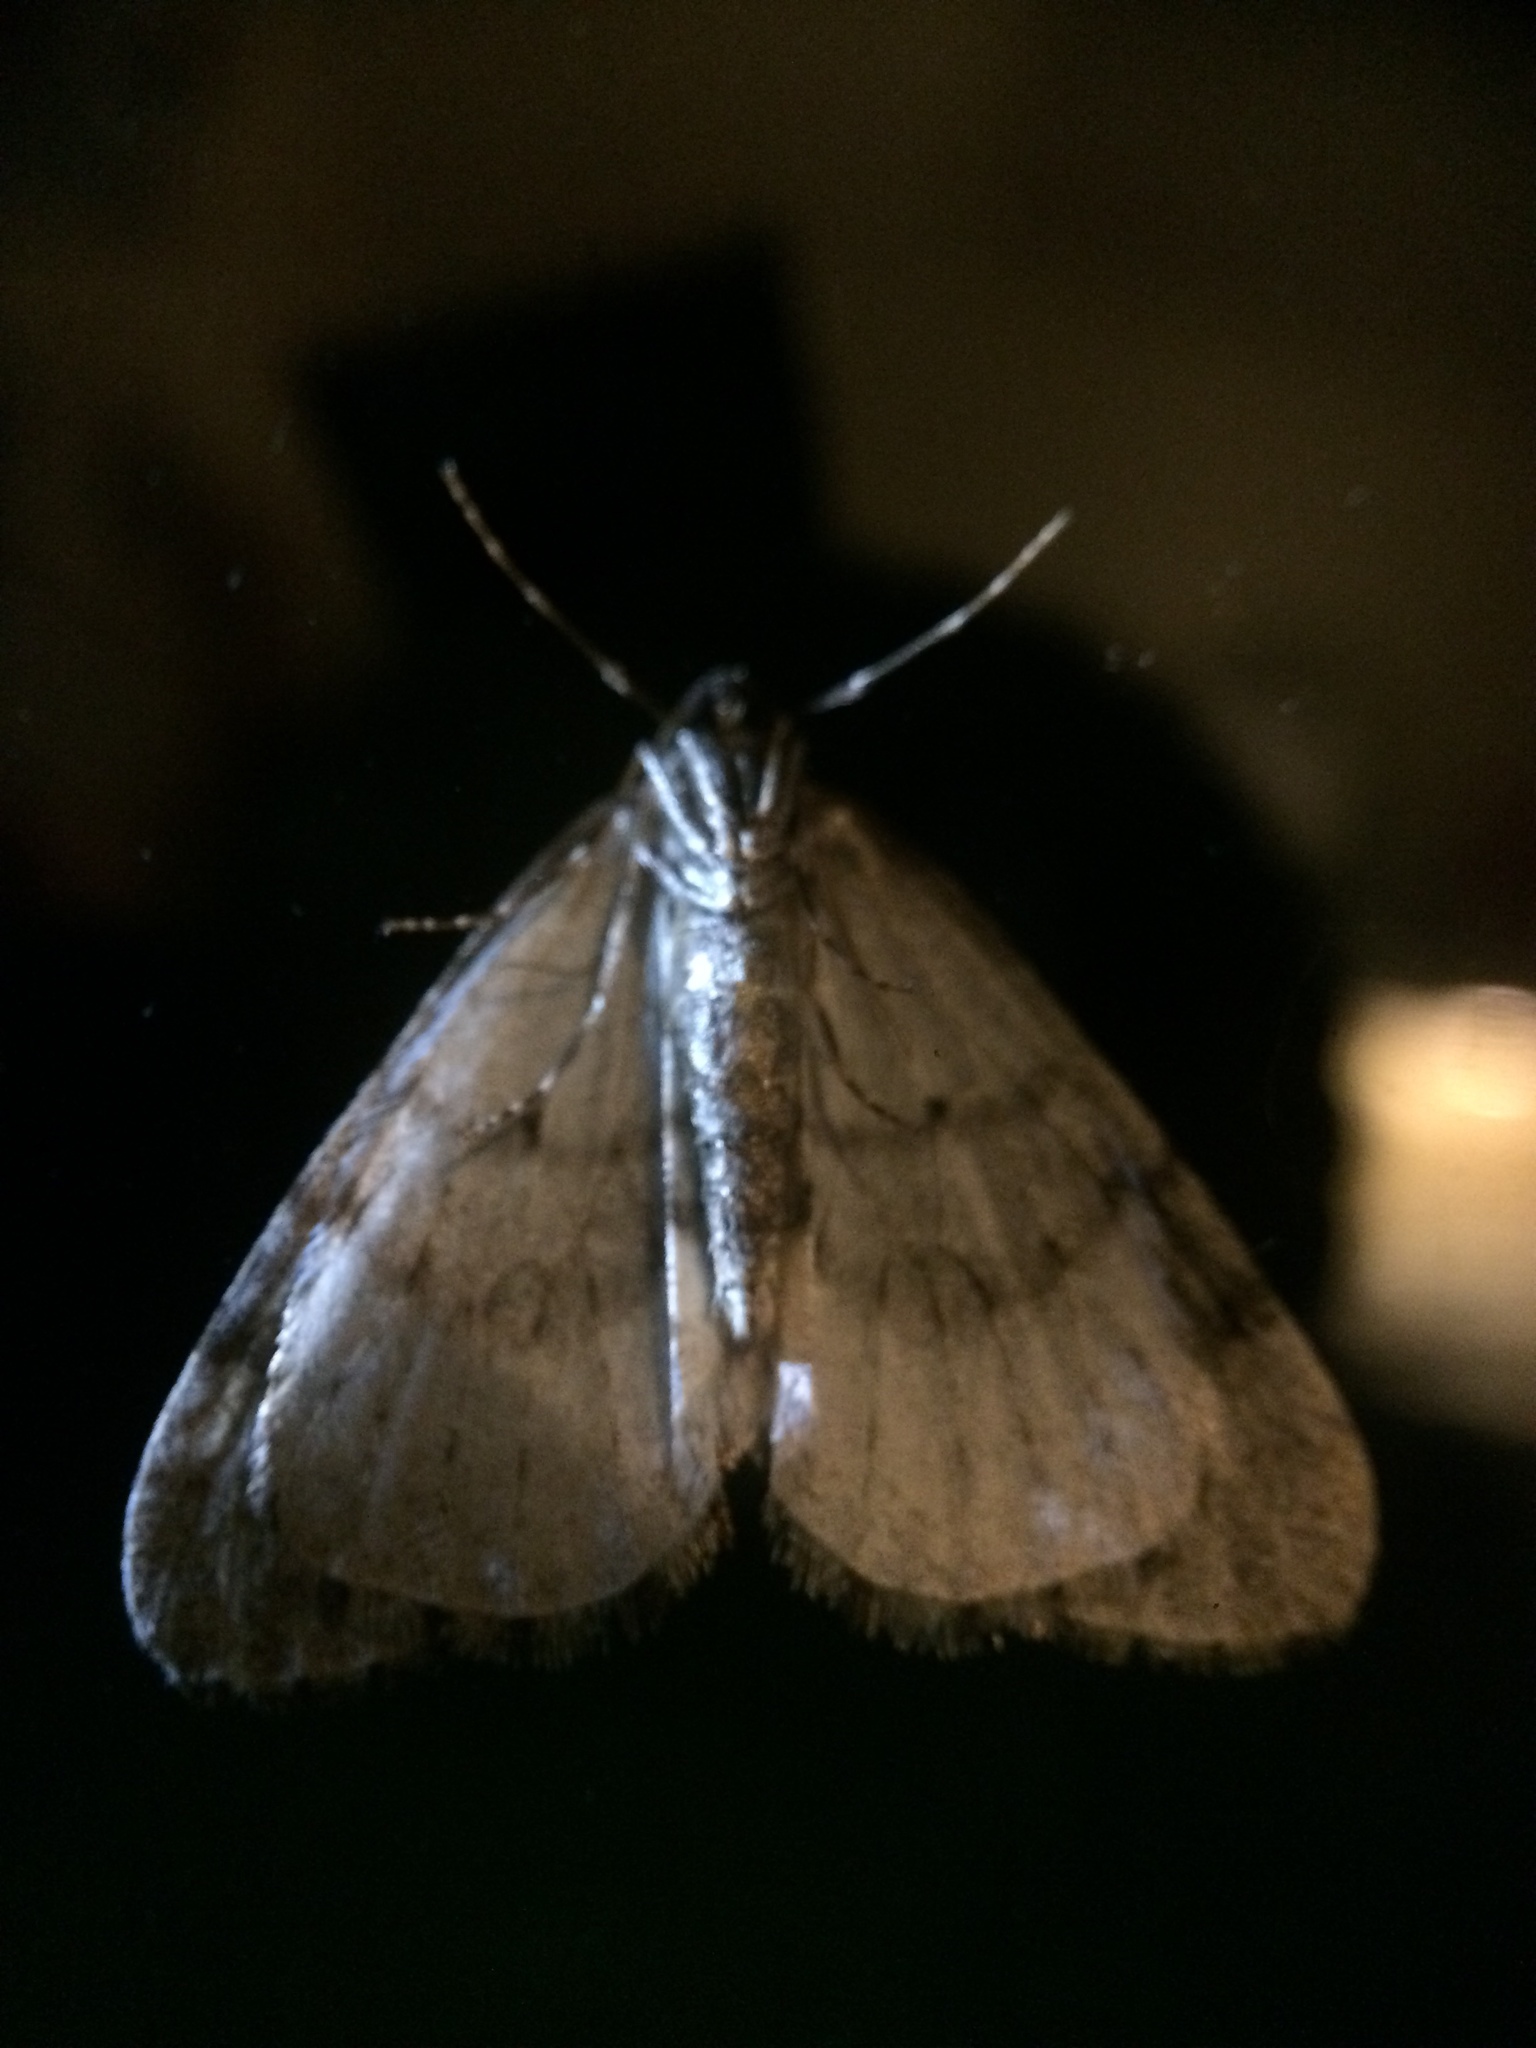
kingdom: Animalia
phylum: Arthropoda
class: Insecta
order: Lepidoptera
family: Geometridae
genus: Operophtera
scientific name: Operophtera
